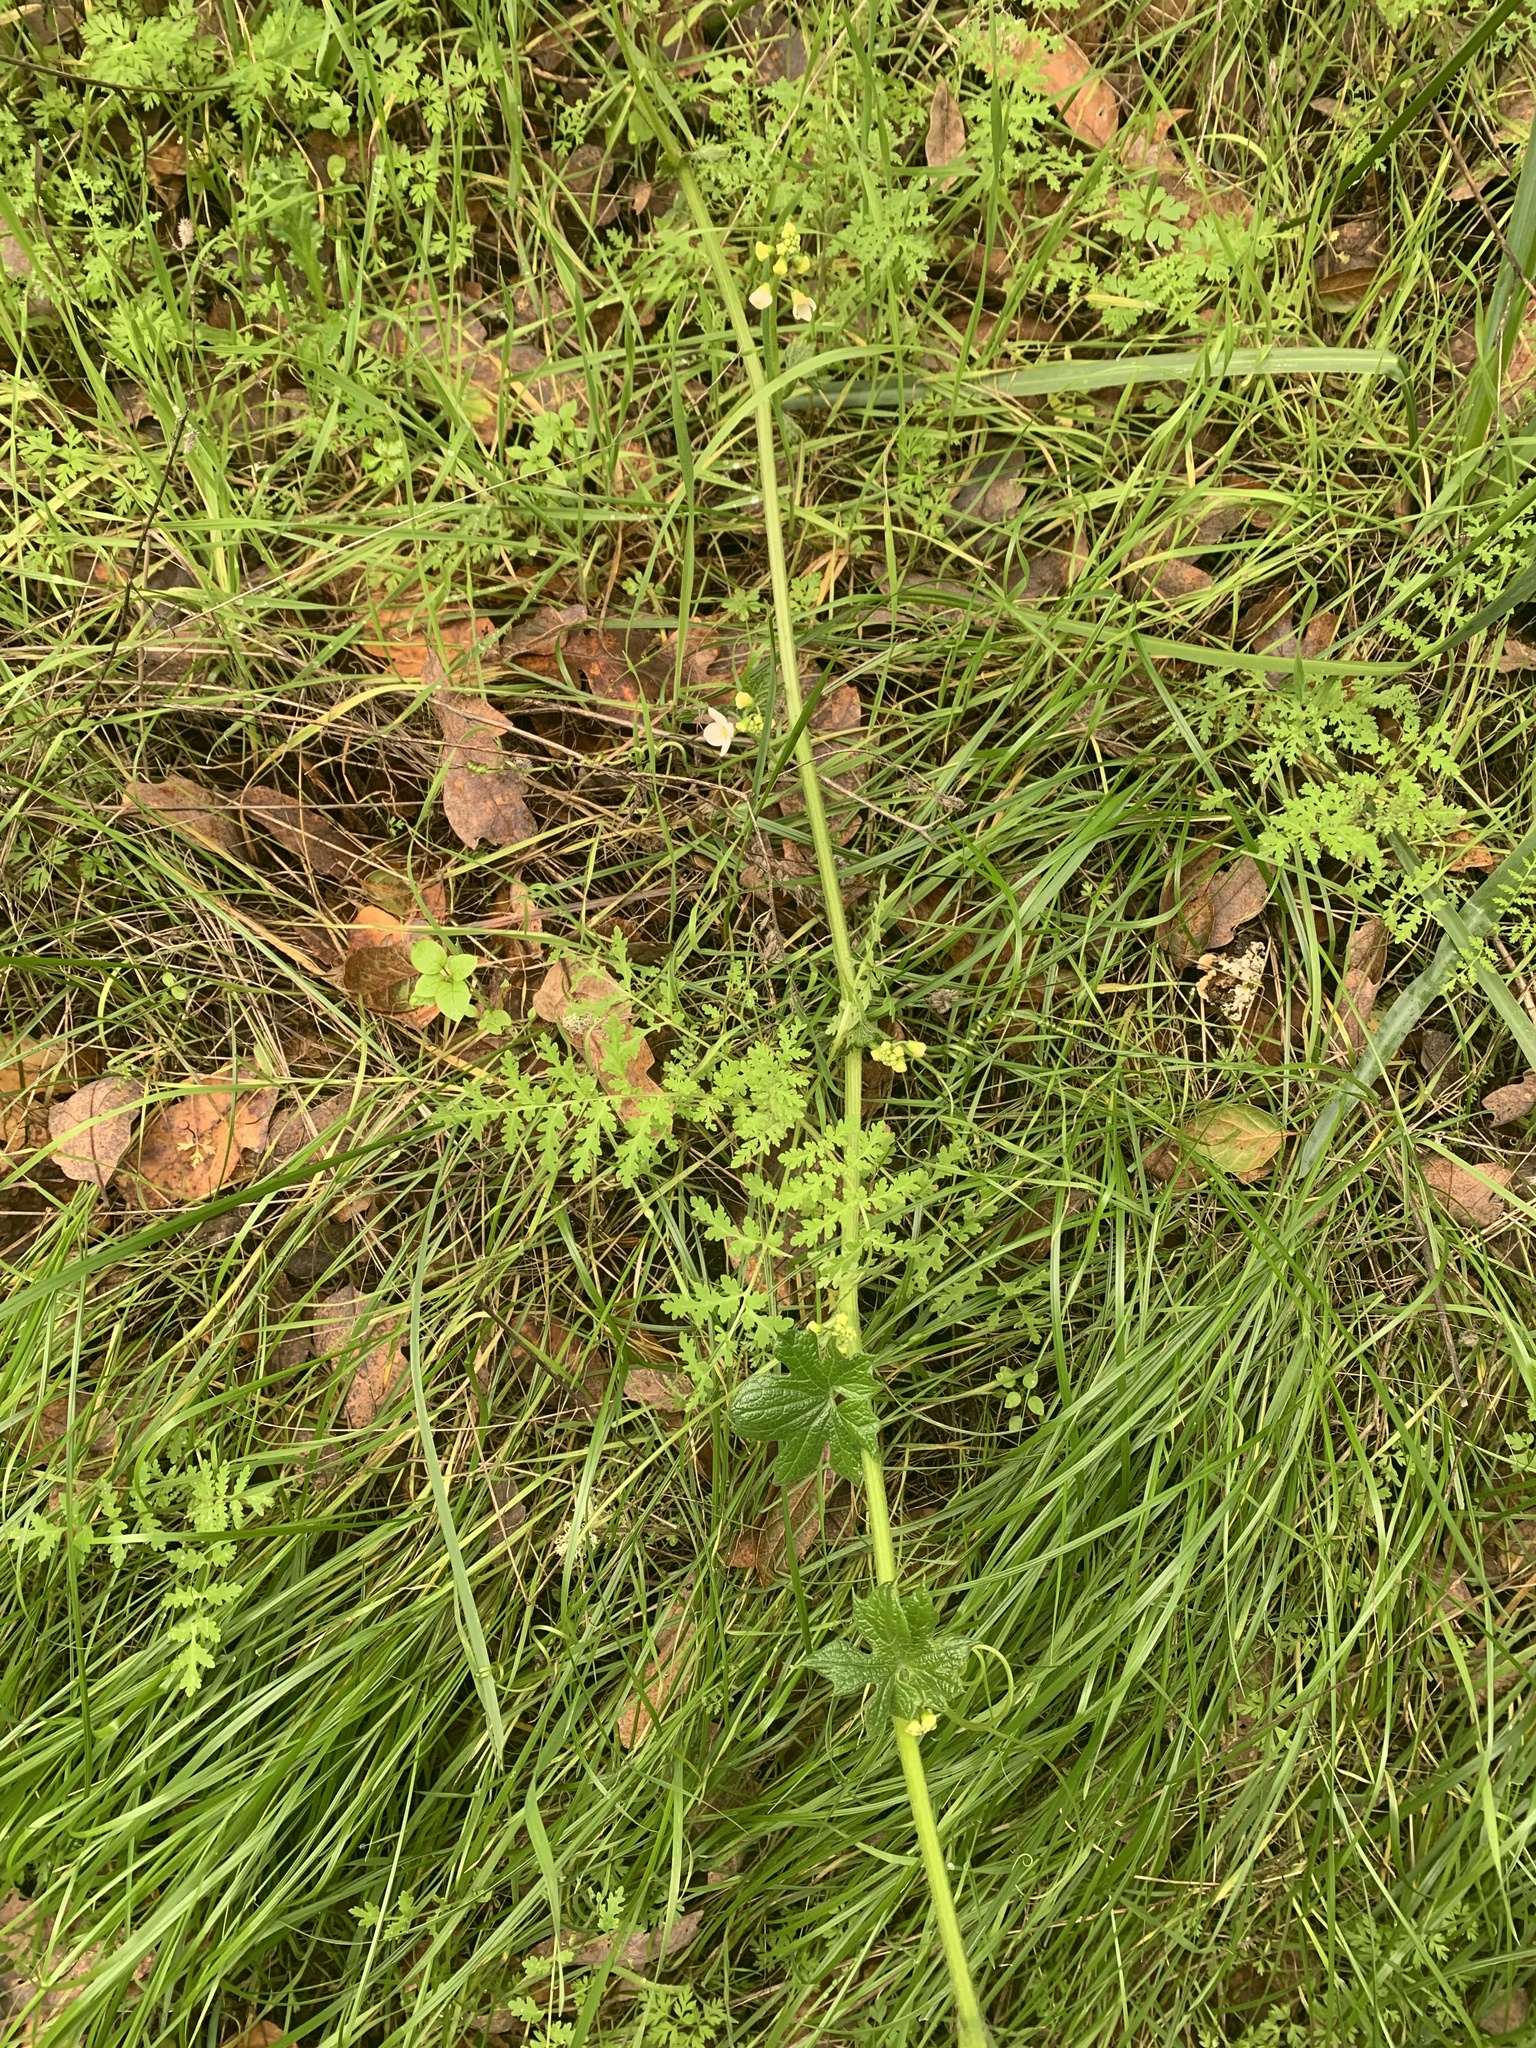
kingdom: Plantae
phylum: Tracheophyta
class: Magnoliopsida
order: Cucurbitales
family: Cucurbitaceae
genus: Marah
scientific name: Marah oregana
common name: Coastal manroot
